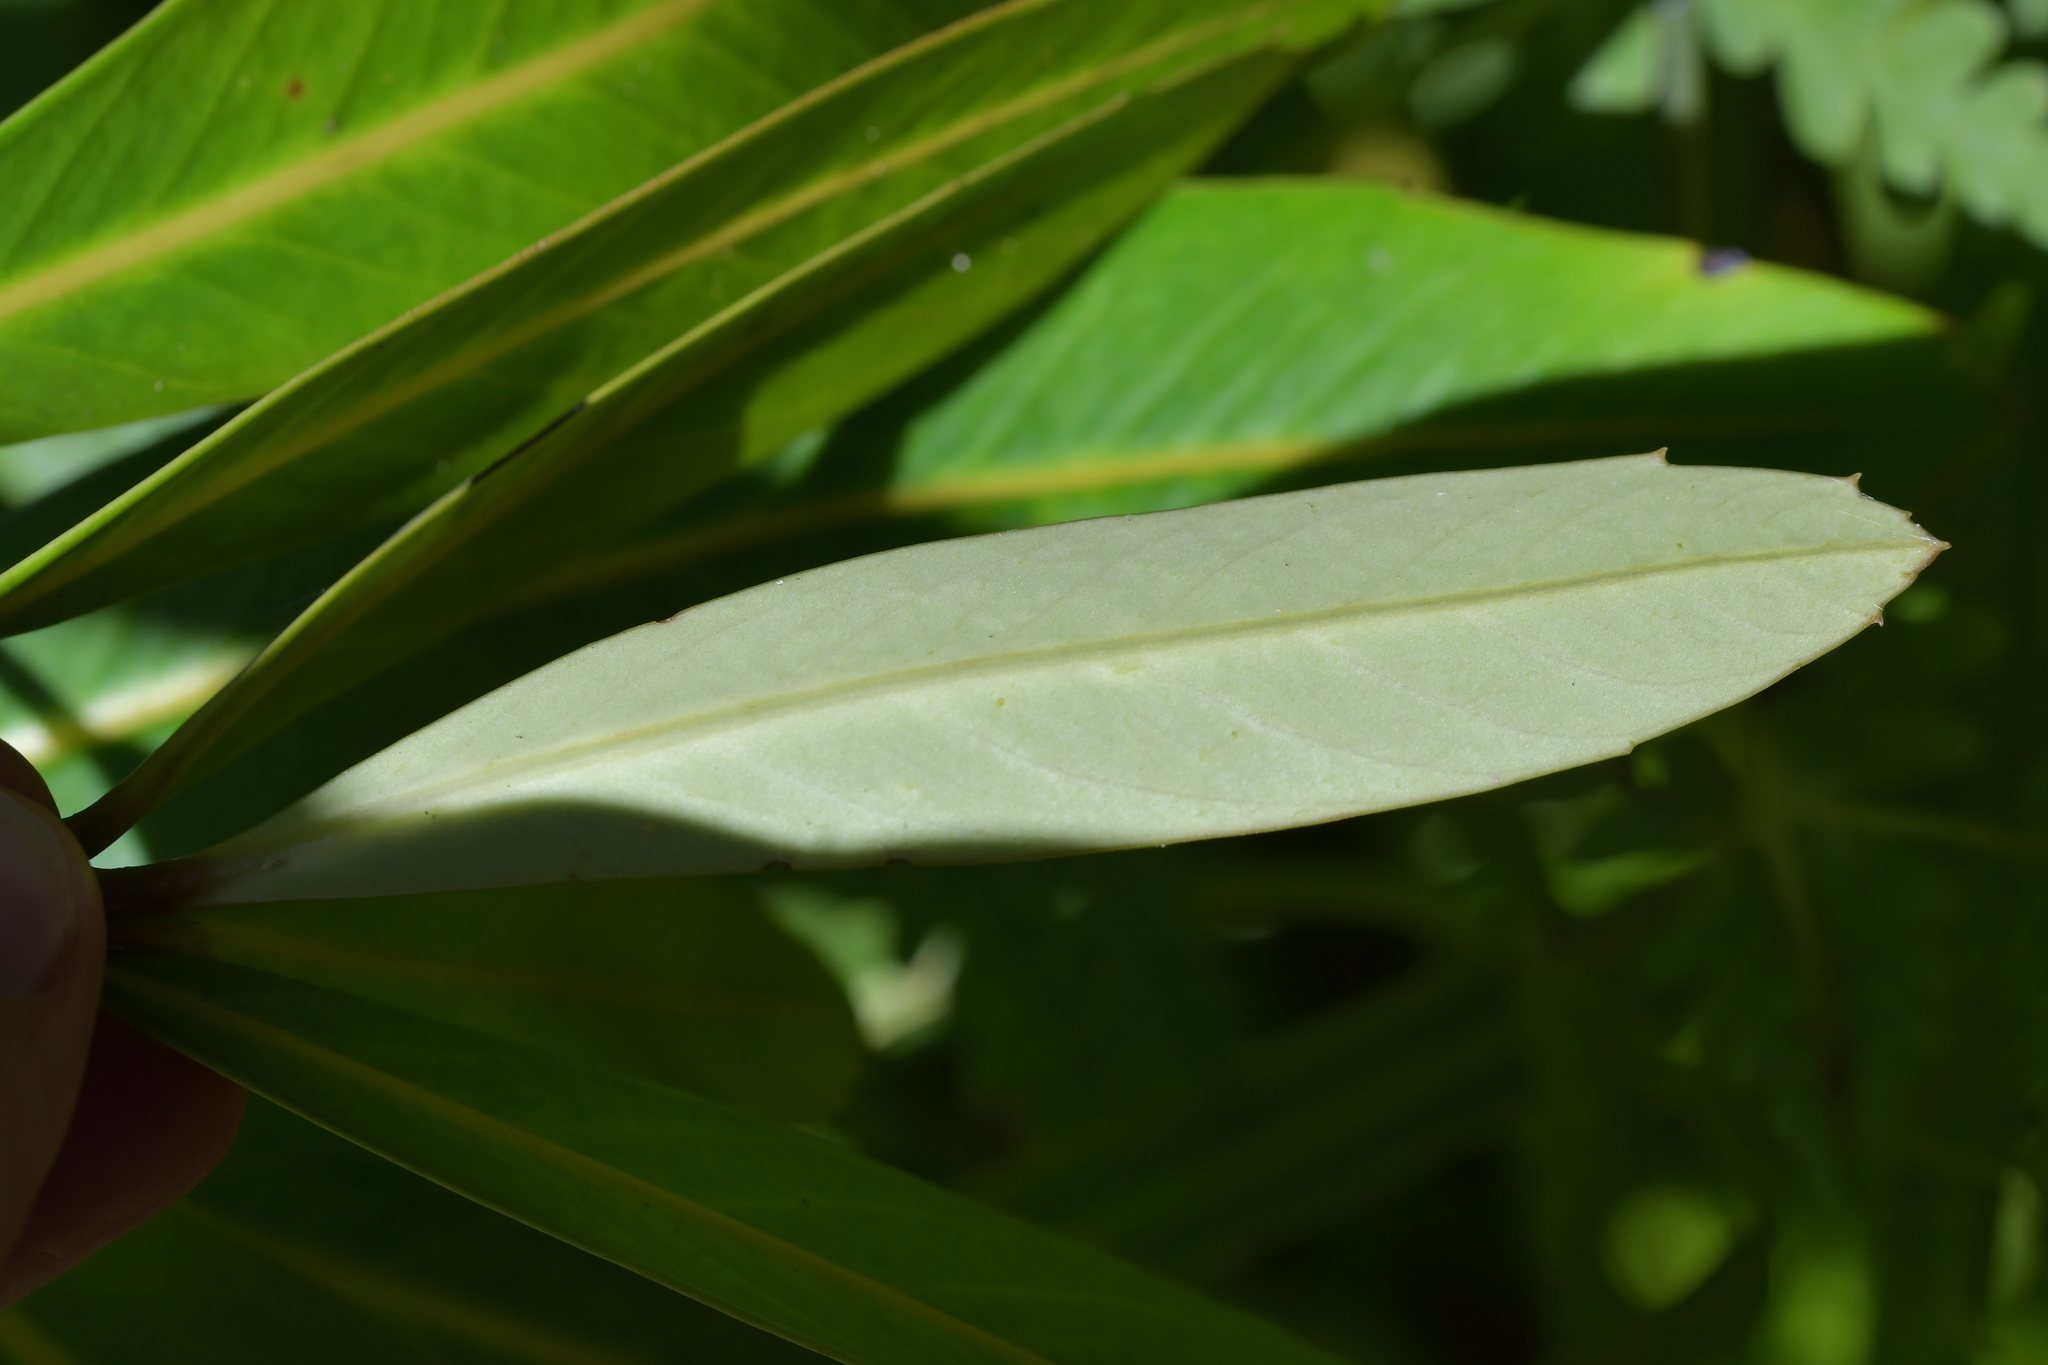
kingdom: Plantae
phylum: Tracheophyta
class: Magnoliopsida
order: Apiales
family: Araliaceae
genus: Pseudopanax
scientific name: Pseudopanax chathamicus
